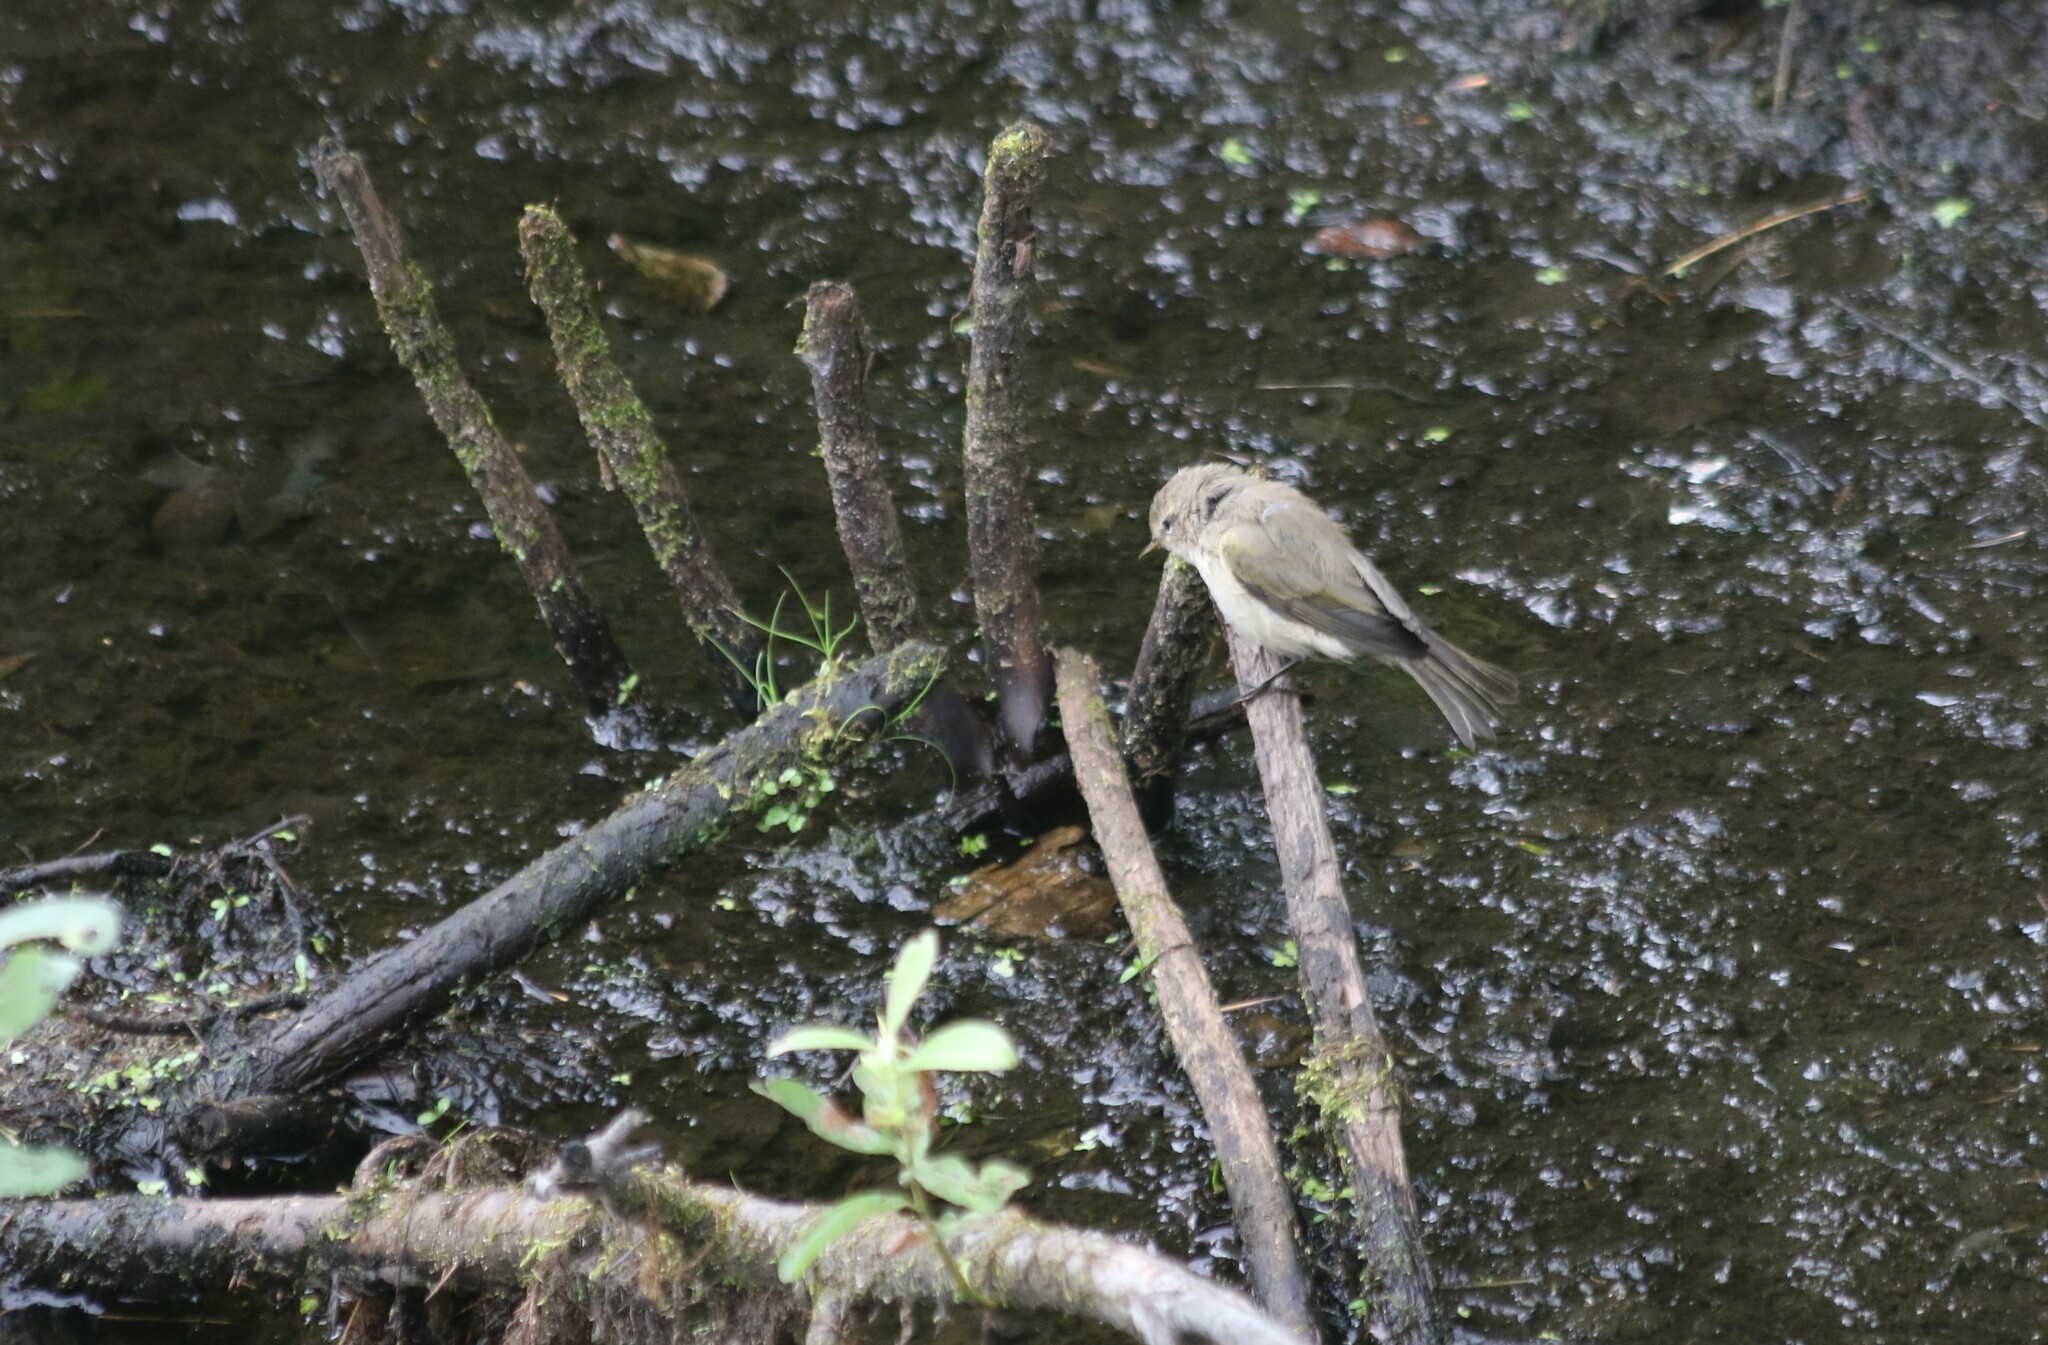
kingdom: Animalia
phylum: Chordata
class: Aves
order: Passeriformes
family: Phylloscopidae
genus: Phylloscopus
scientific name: Phylloscopus collybita
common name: Common chiffchaff
